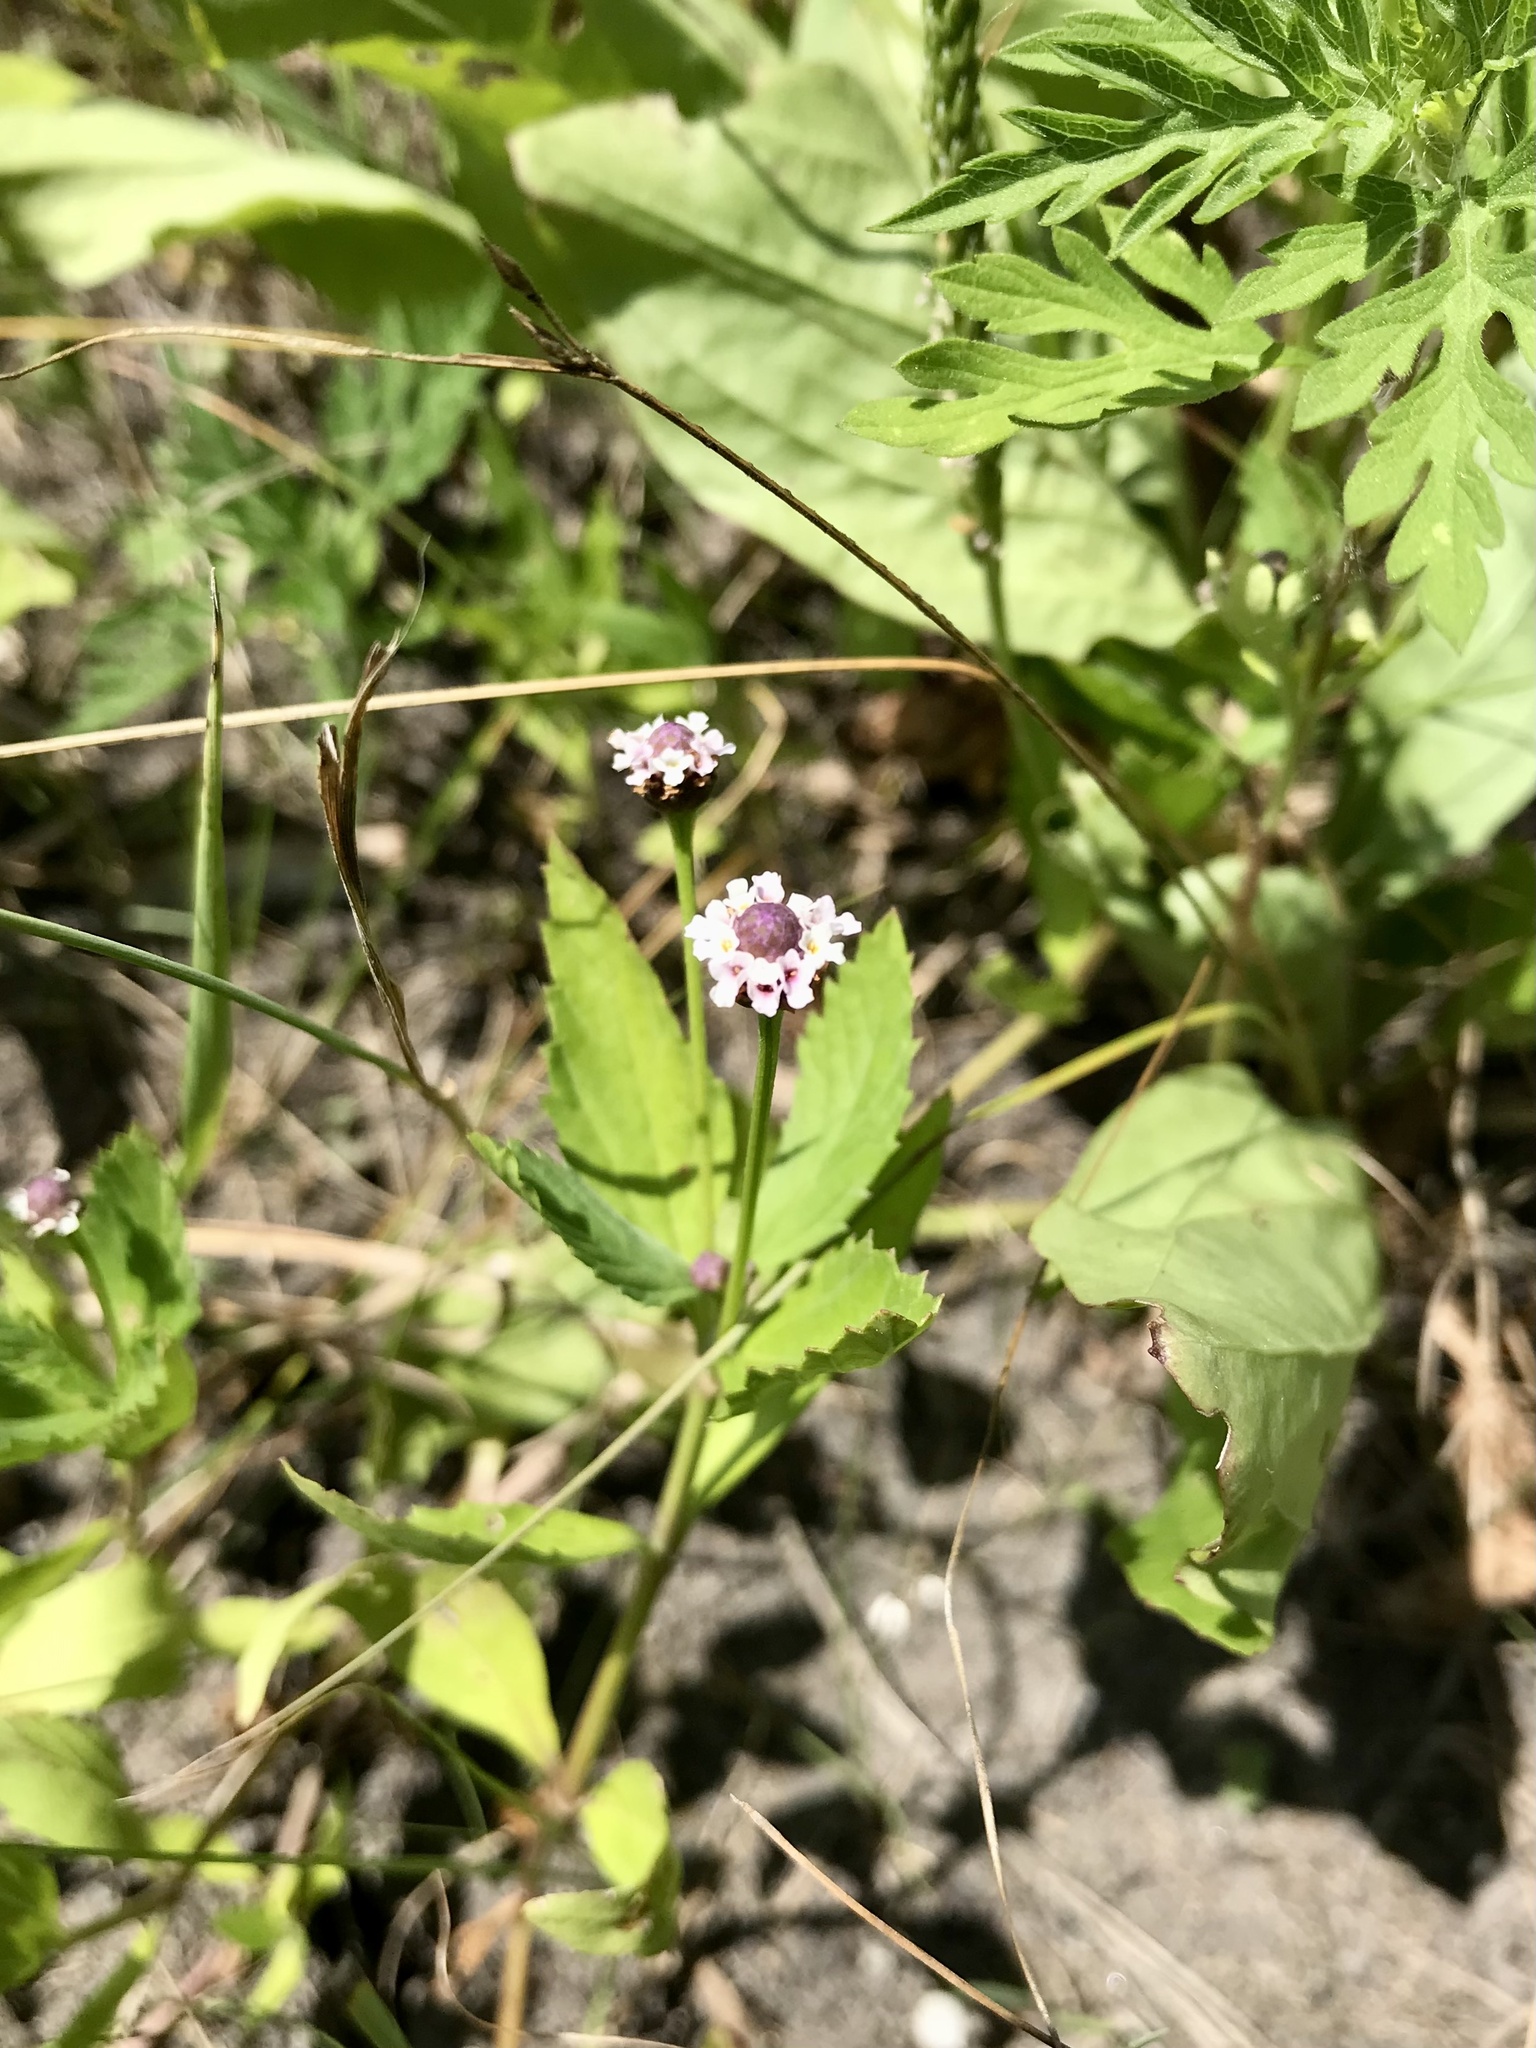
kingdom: Plantae
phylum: Tracheophyta
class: Magnoliopsida
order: Lamiales
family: Verbenaceae
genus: Phyla
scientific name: Phyla lanceolata
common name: Northern fogfruit
